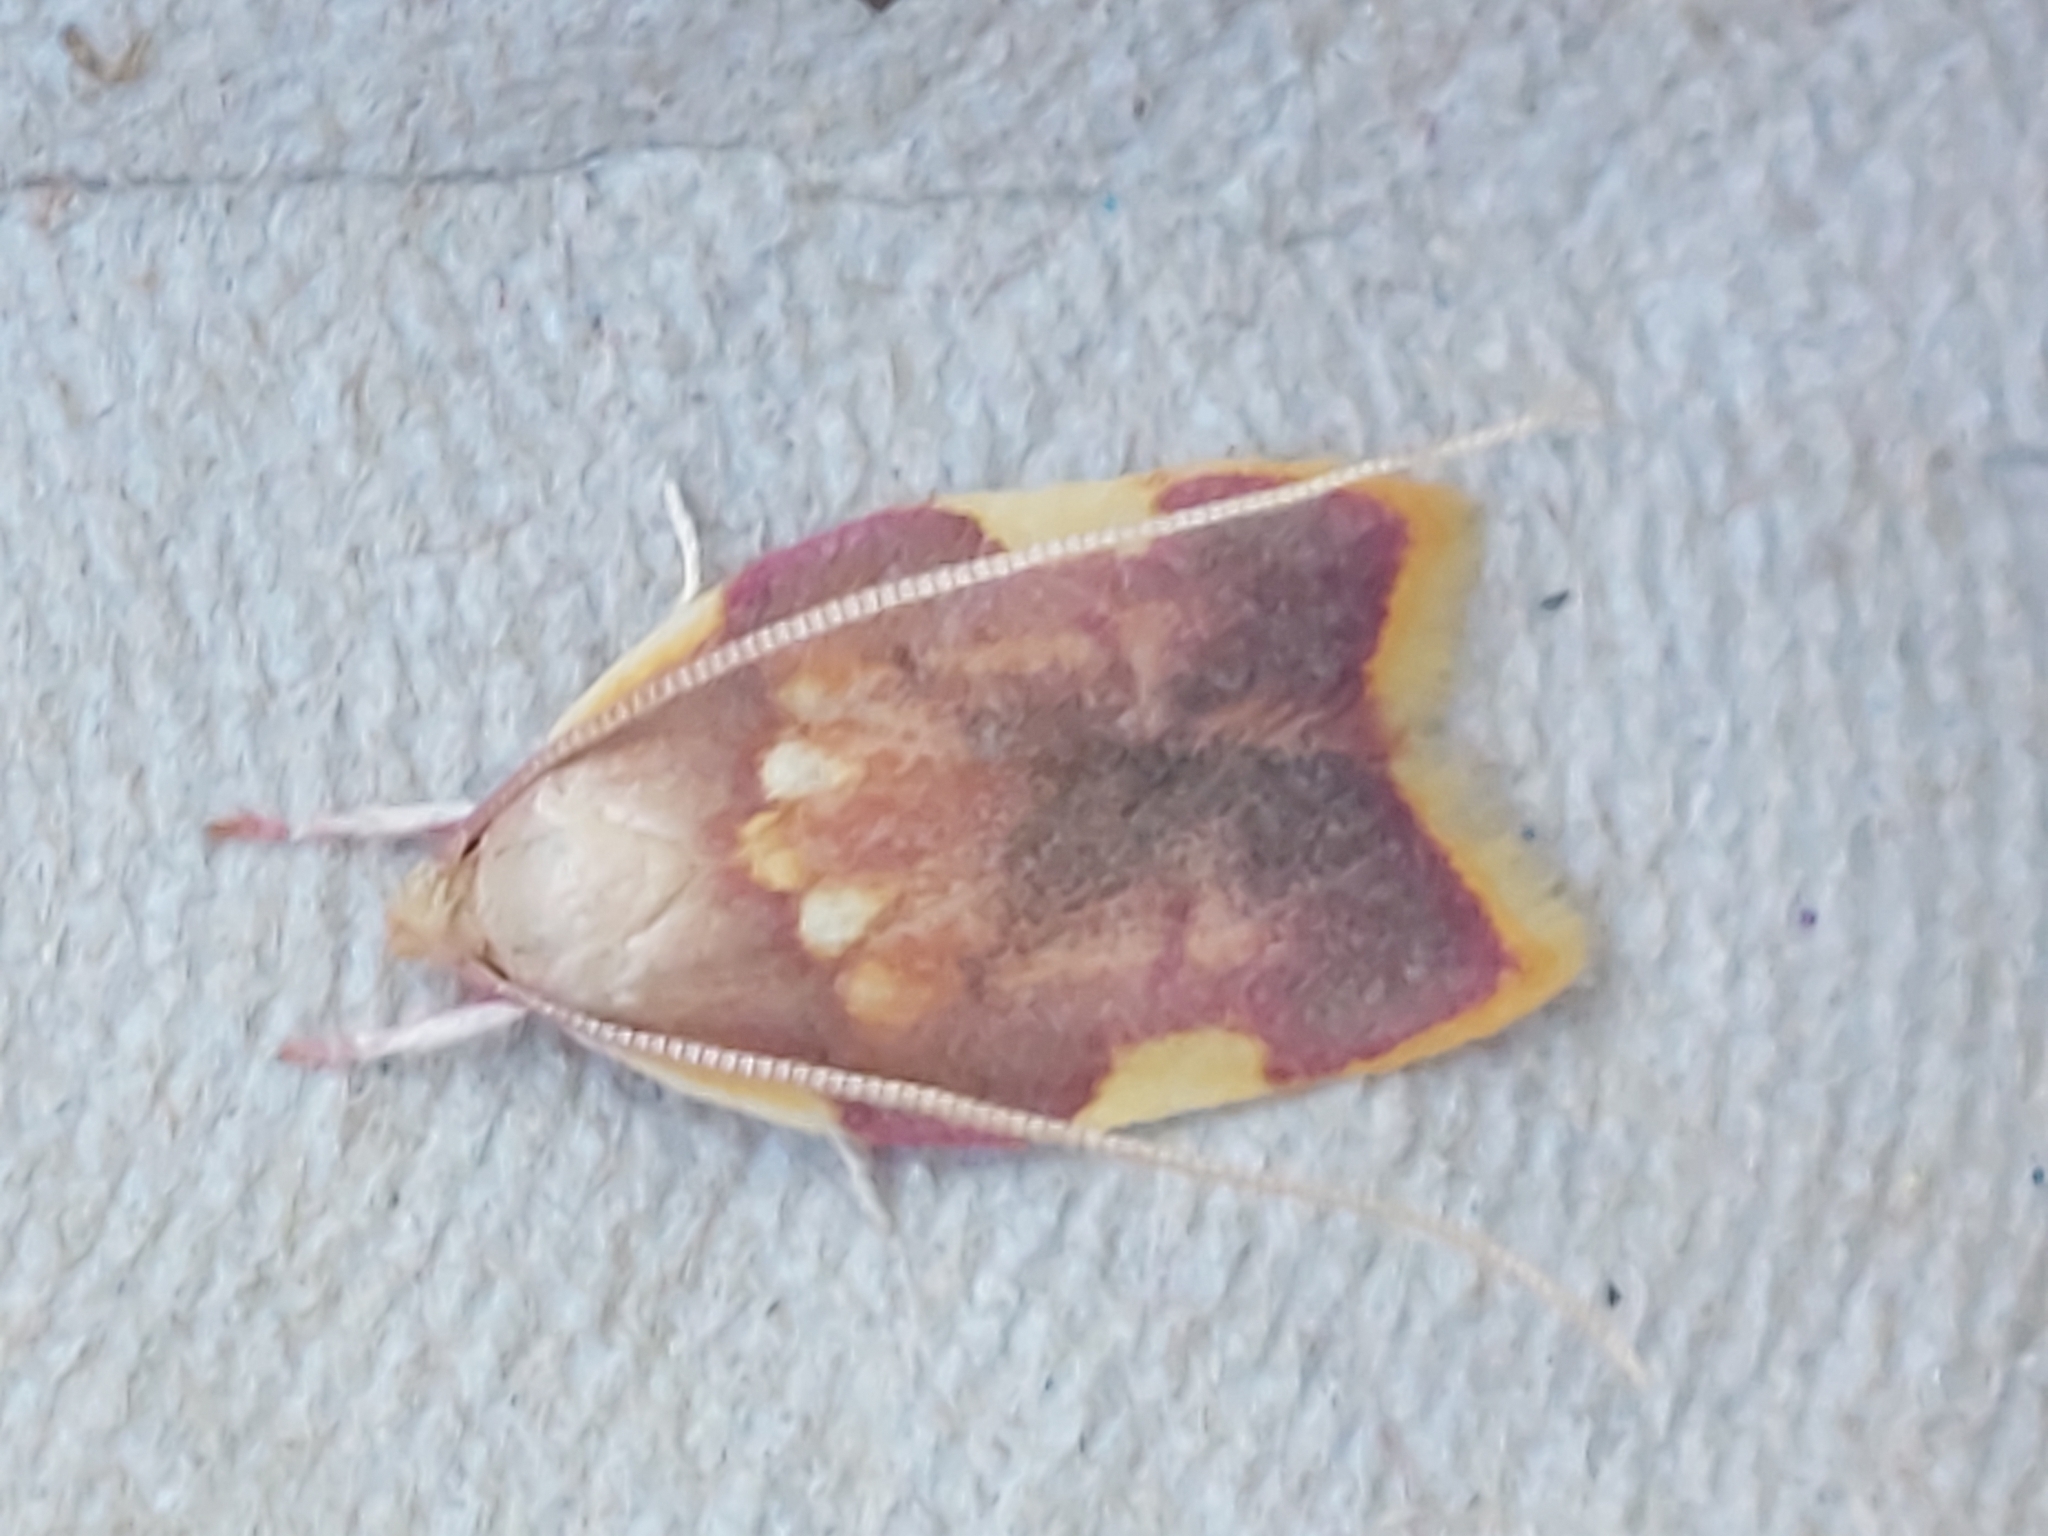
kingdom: Animalia
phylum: Arthropoda
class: Insecta
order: Lepidoptera
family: Peleopodidae
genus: Carcina
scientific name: Carcina quercana
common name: Moth
